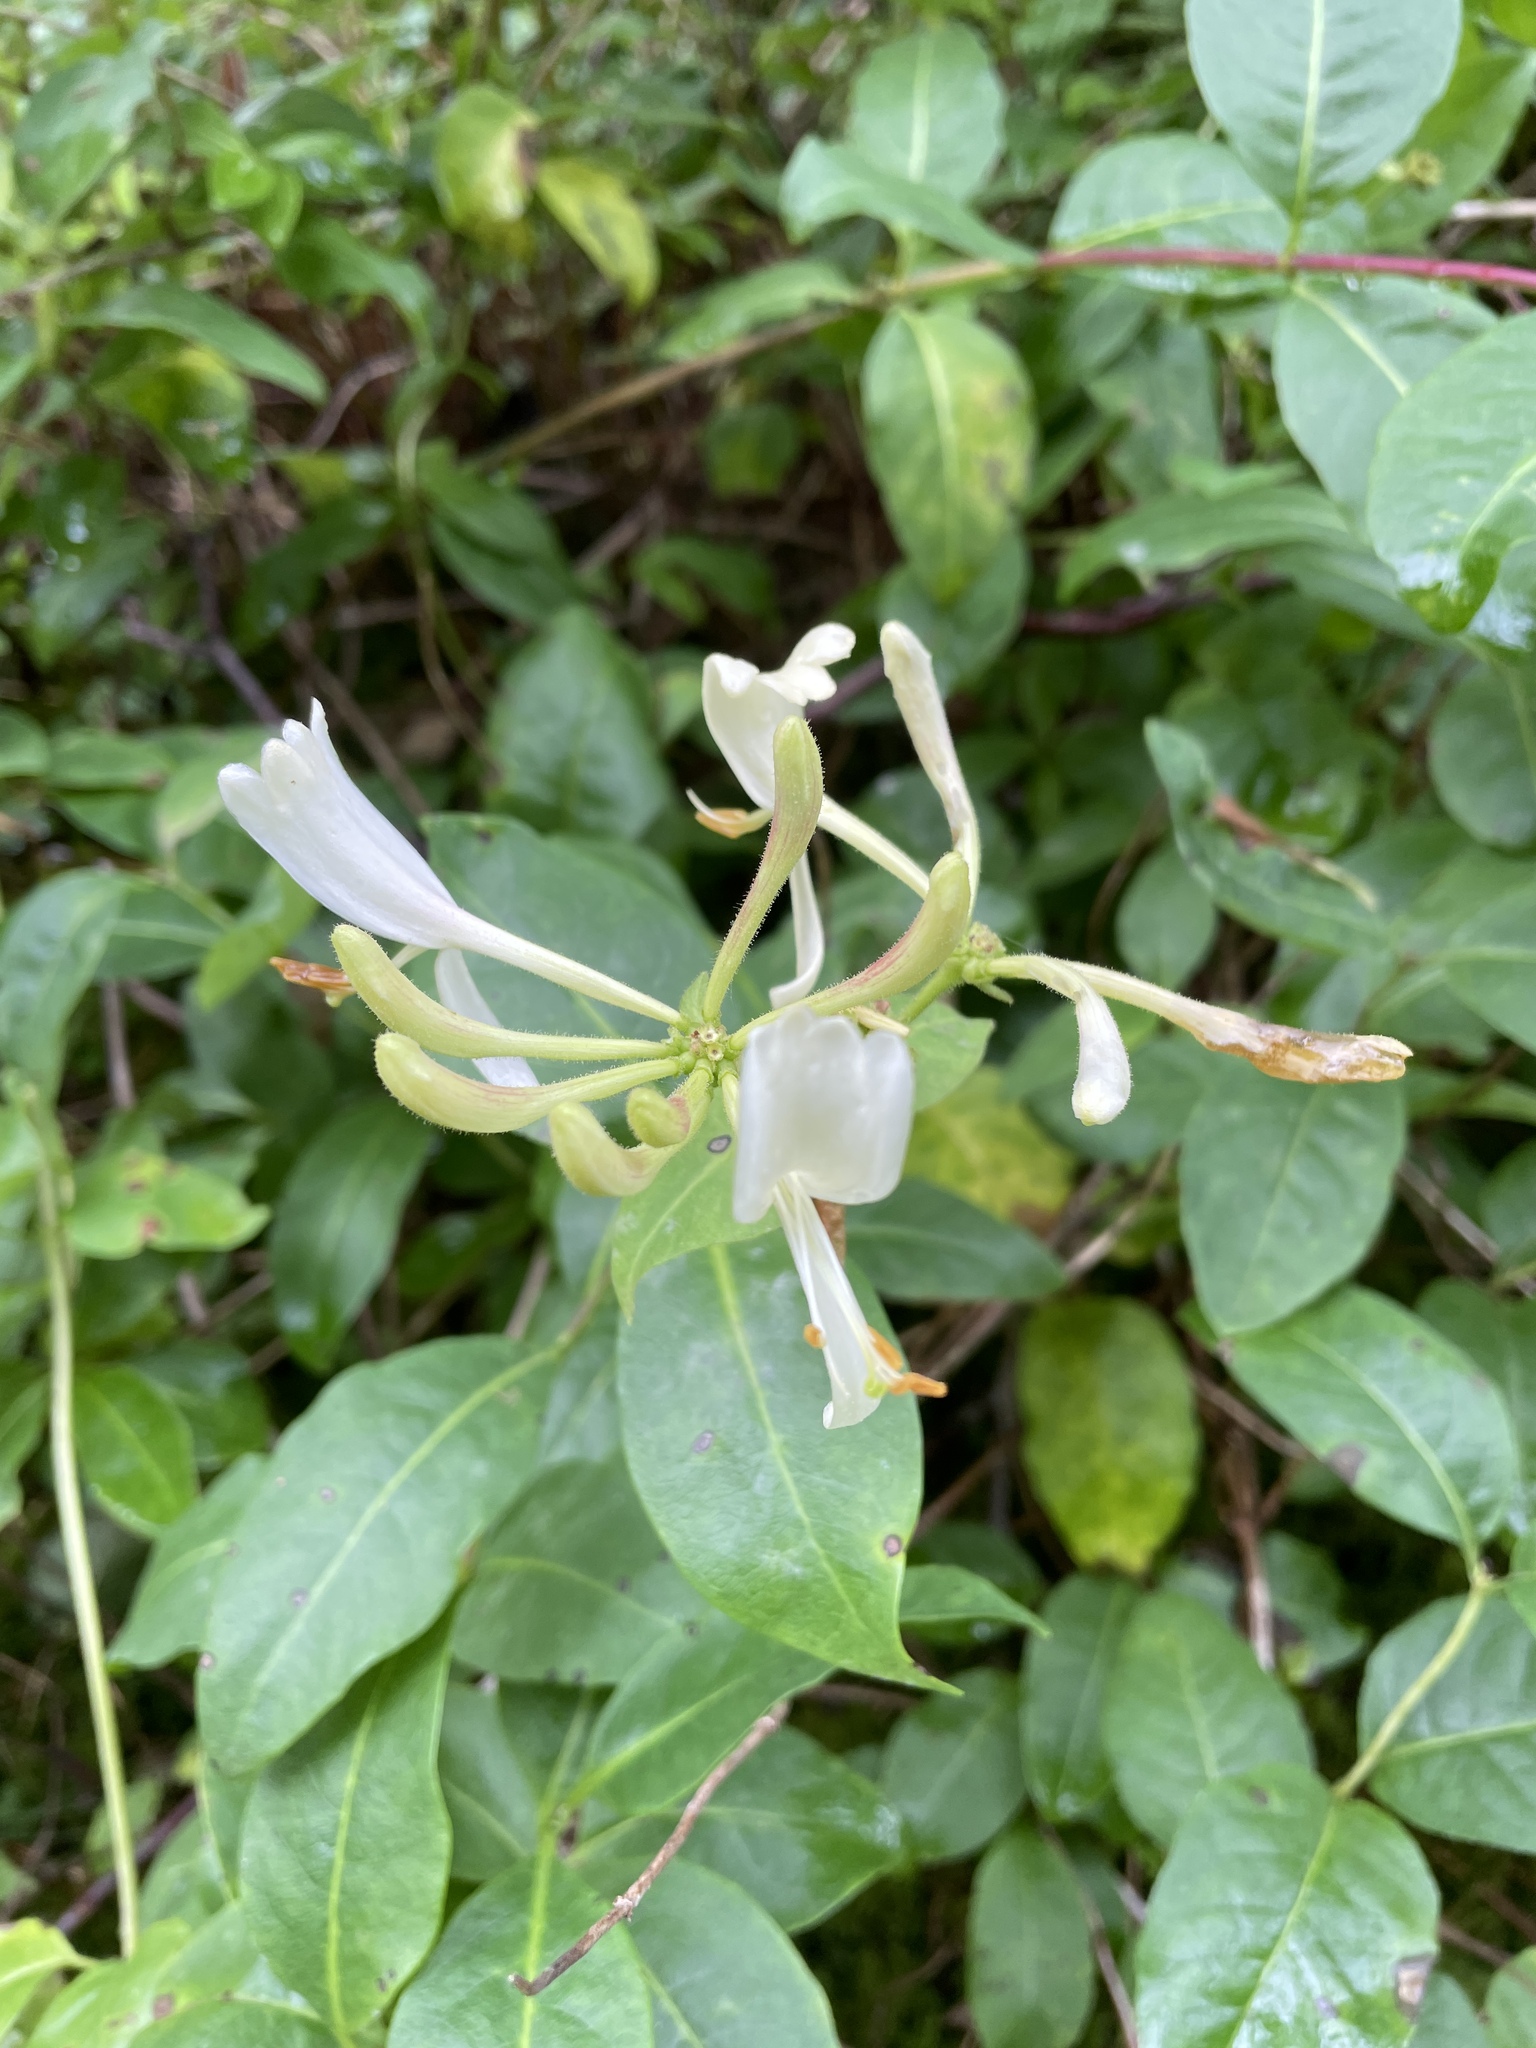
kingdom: Plantae
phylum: Tracheophyta
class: Magnoliopsida
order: Dipsacales
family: Caprifoliaceae
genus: Lonicera
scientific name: Lonicera periclymenum
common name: European honeysuckle
